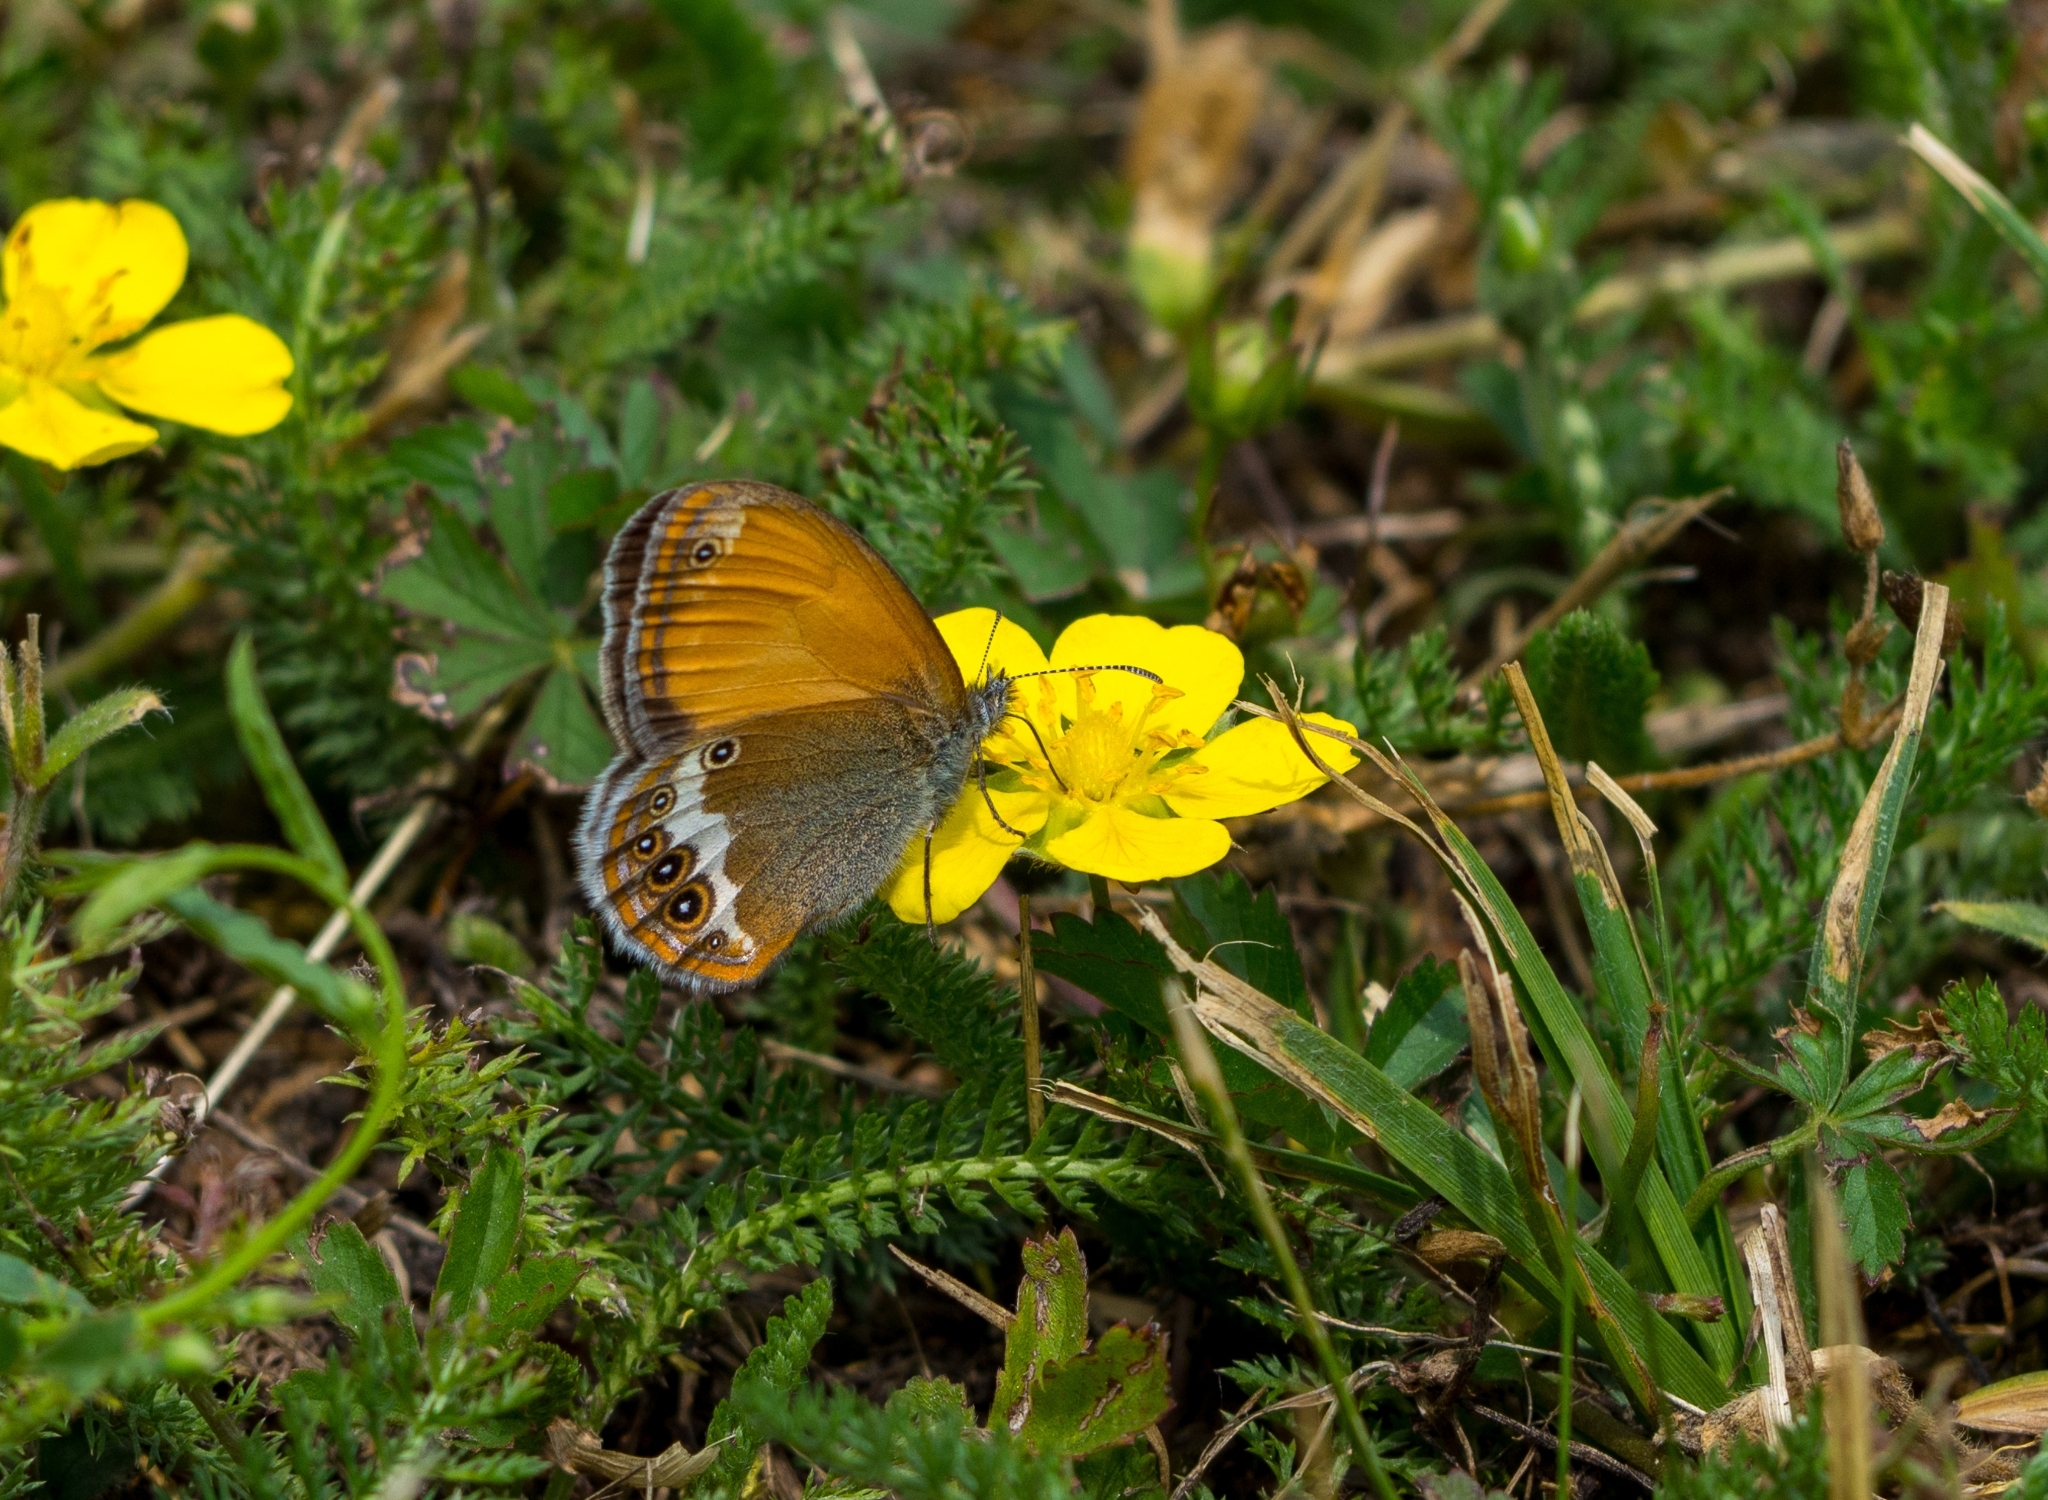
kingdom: Animalia
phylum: Arthropoda
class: Insecta
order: Lepidoptera
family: Nymphalidae
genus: Coenonympha
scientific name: Coenonympha arcania
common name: Pearly heath
